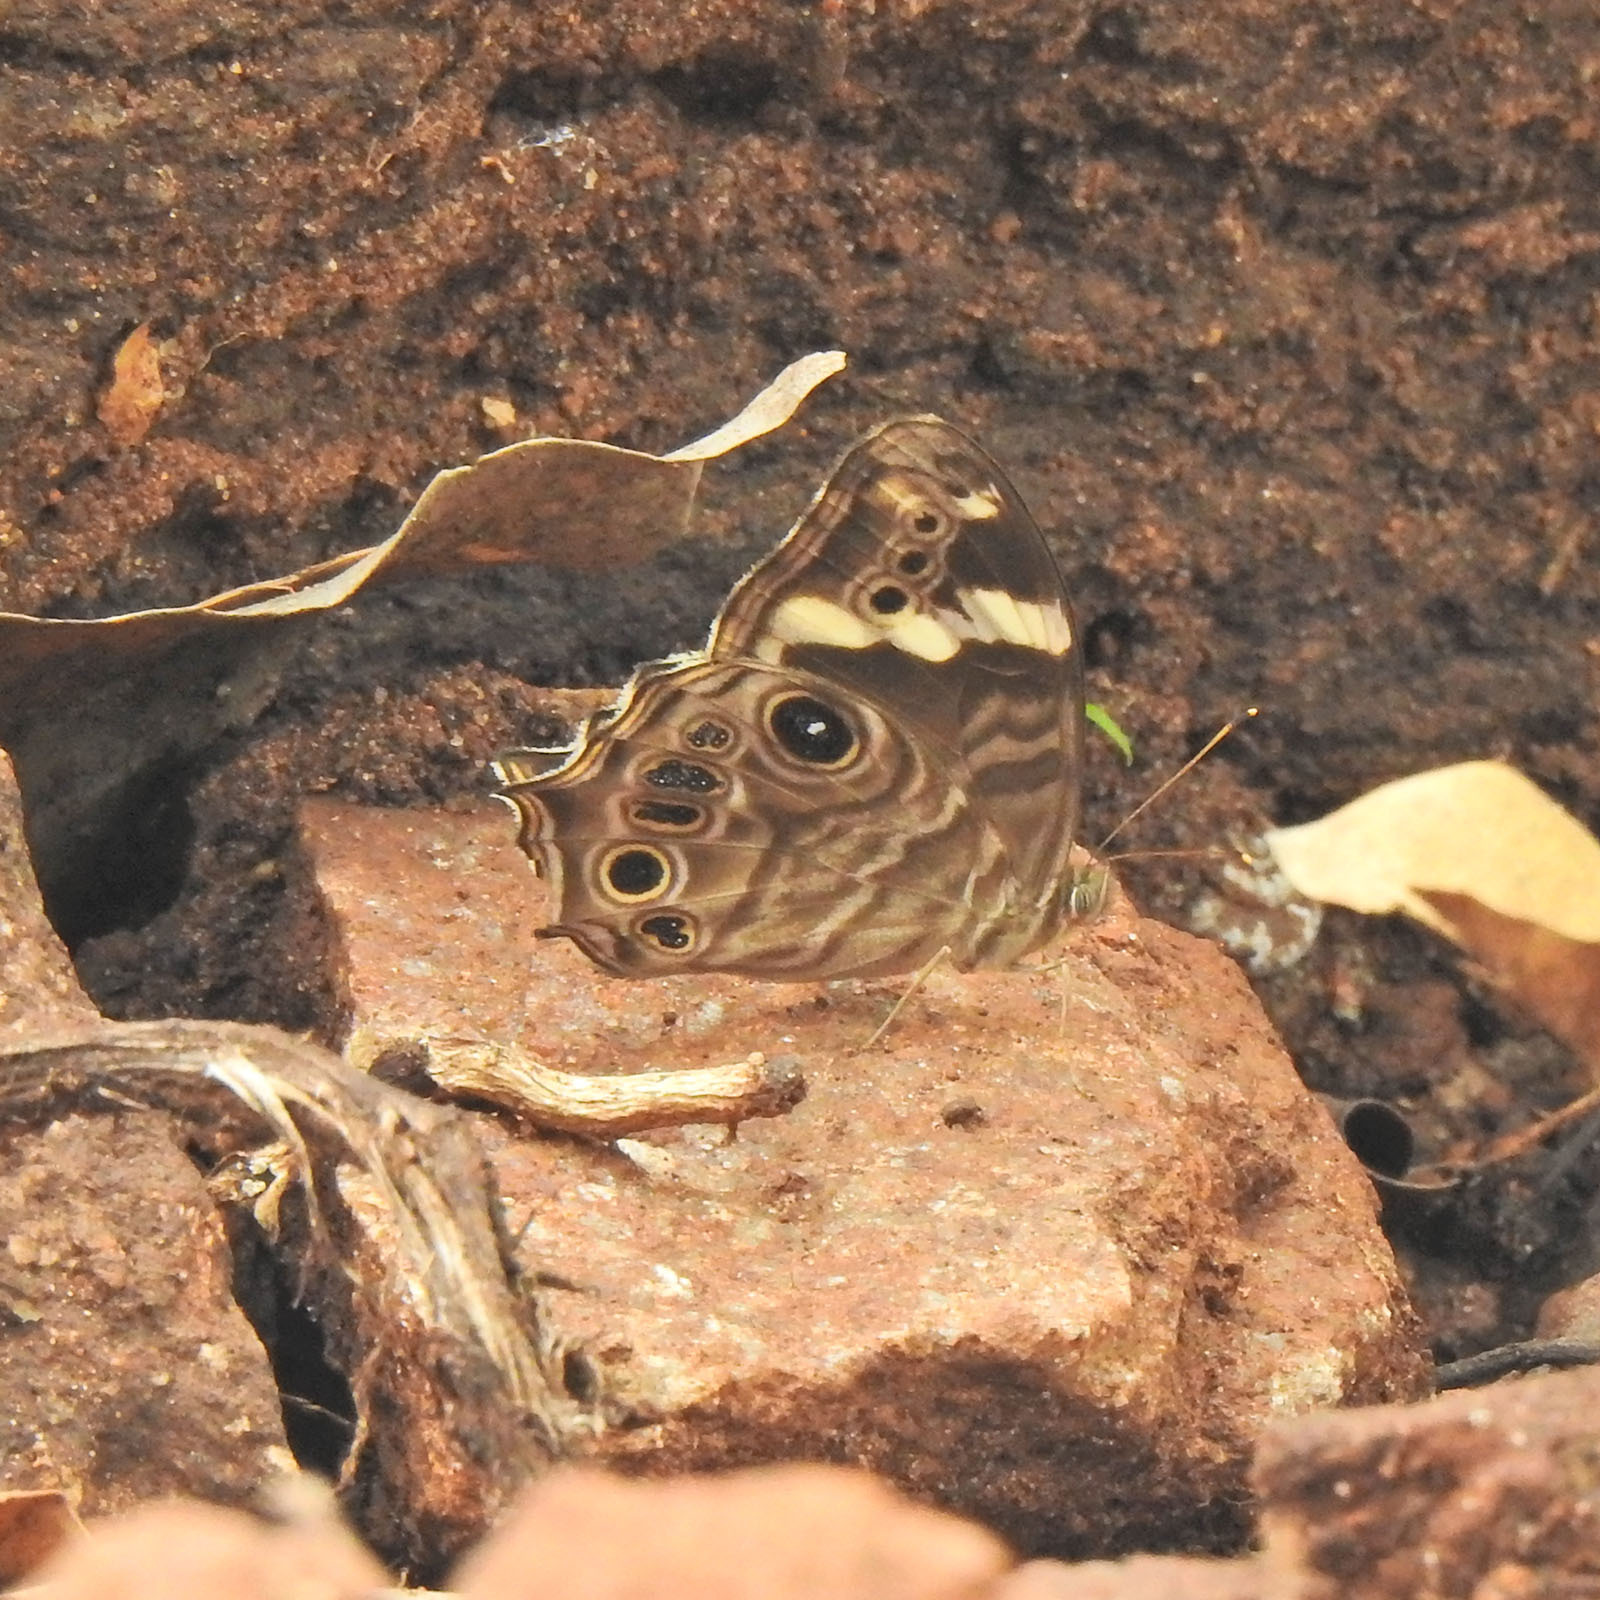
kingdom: Animalia
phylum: Arthropoda
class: Insecta
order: Lepidoptera
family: Nymphalidae
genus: Lethe
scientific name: Lethe rohria
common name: Common treebrown
